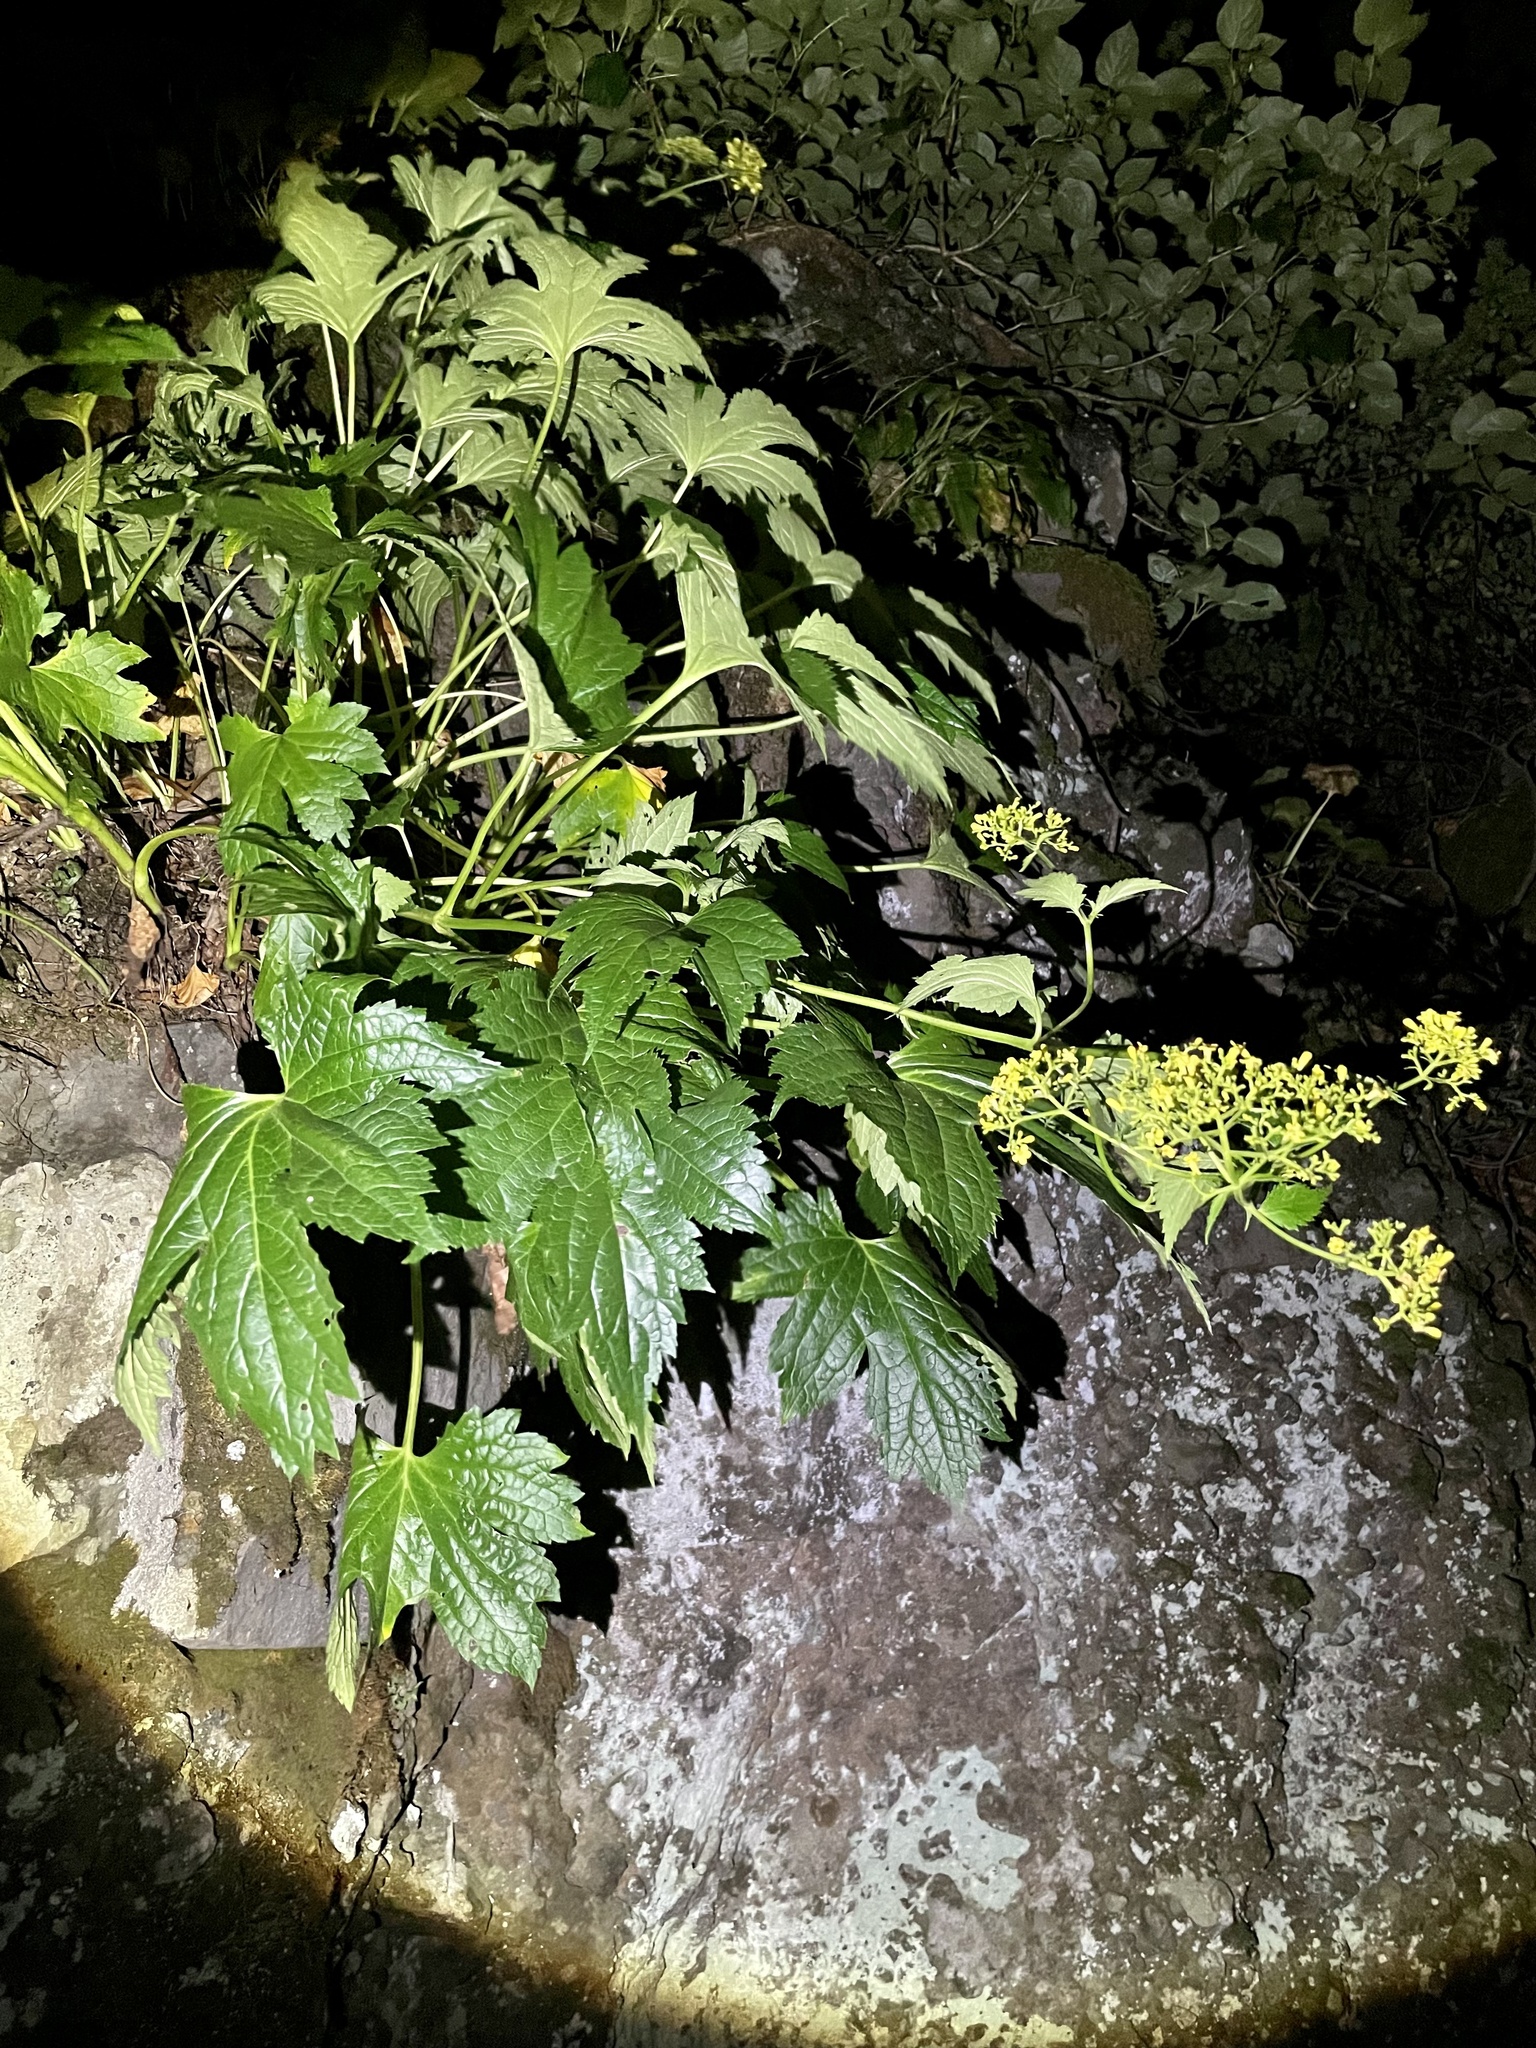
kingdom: Plantae
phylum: Tracheophyta
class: Magnoliopsida
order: Dipsacales
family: Caprifoliaceae
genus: Patrinia
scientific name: Patrinia triloba
